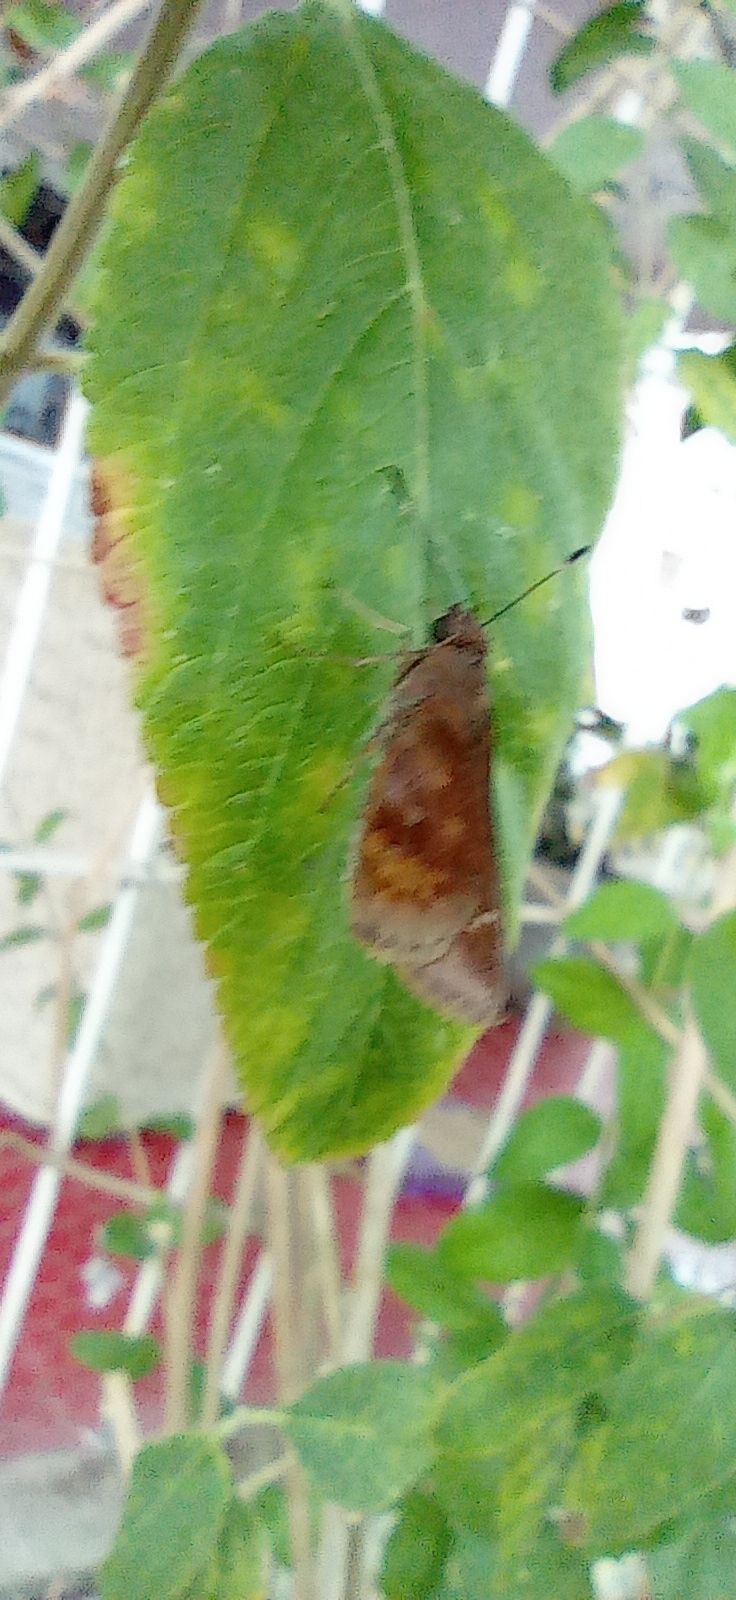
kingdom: Animalia
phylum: Arthropoda
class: Insecta
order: Lepidoptera
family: Hesperiidae
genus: Quinta
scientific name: Quinta cannae
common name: Canna skipper
